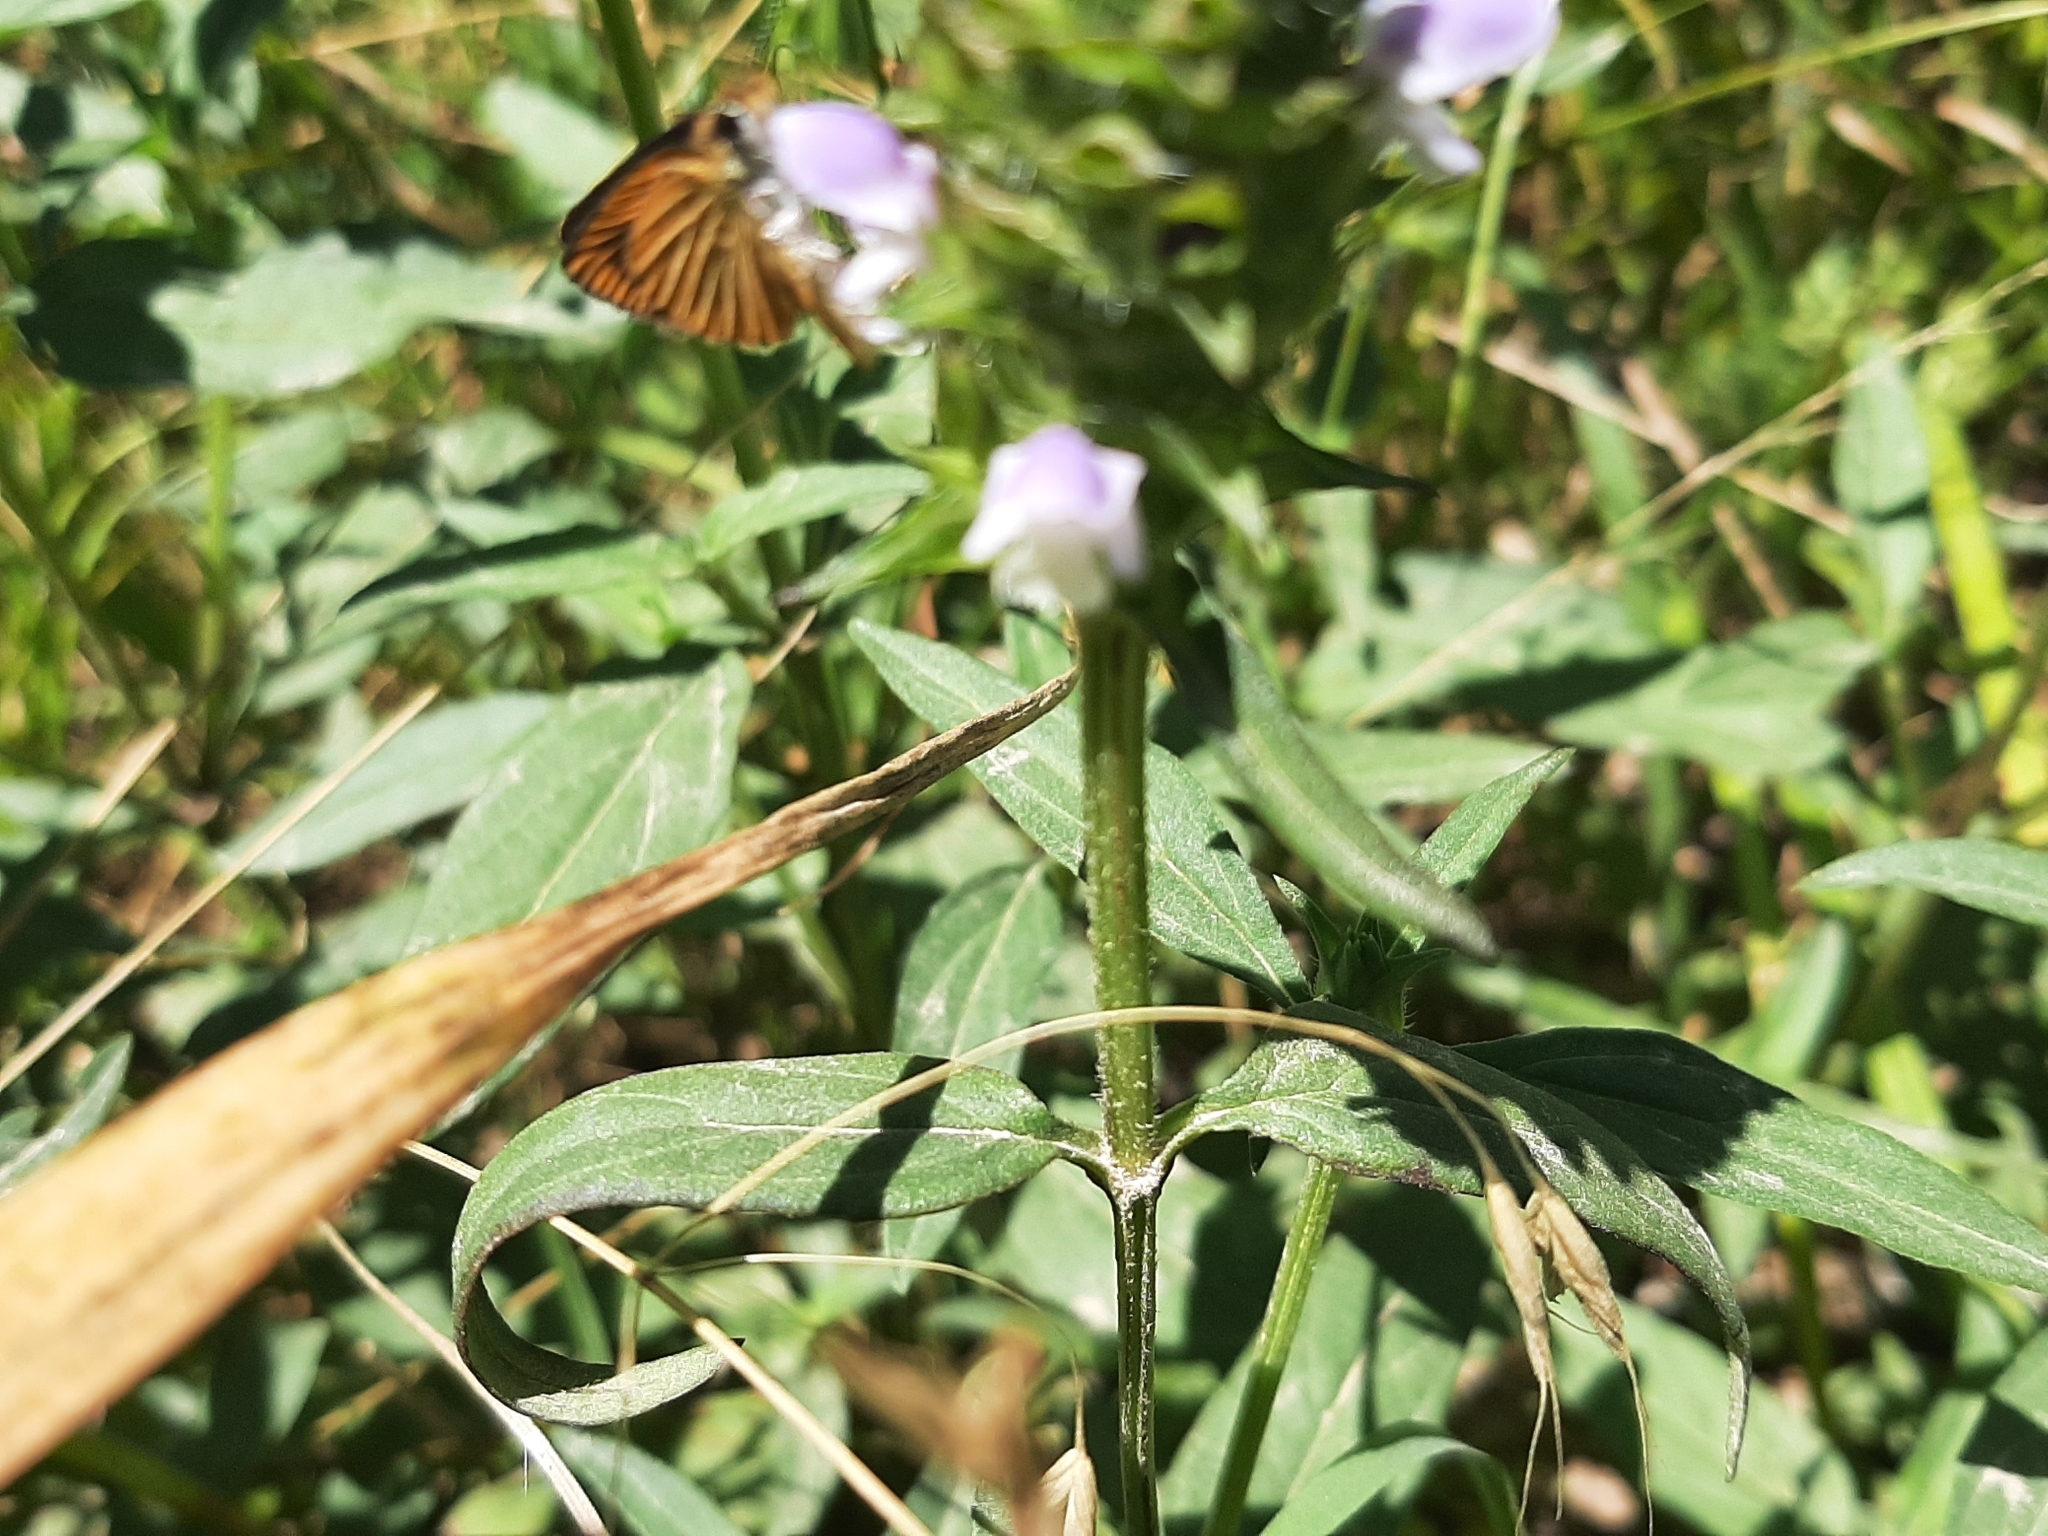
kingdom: Plantae
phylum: Tracheophyta
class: Magnoliopsida
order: Lamiales
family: Lamiaceae
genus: Prunella
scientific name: Prunella vulgaris
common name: Heal-all
